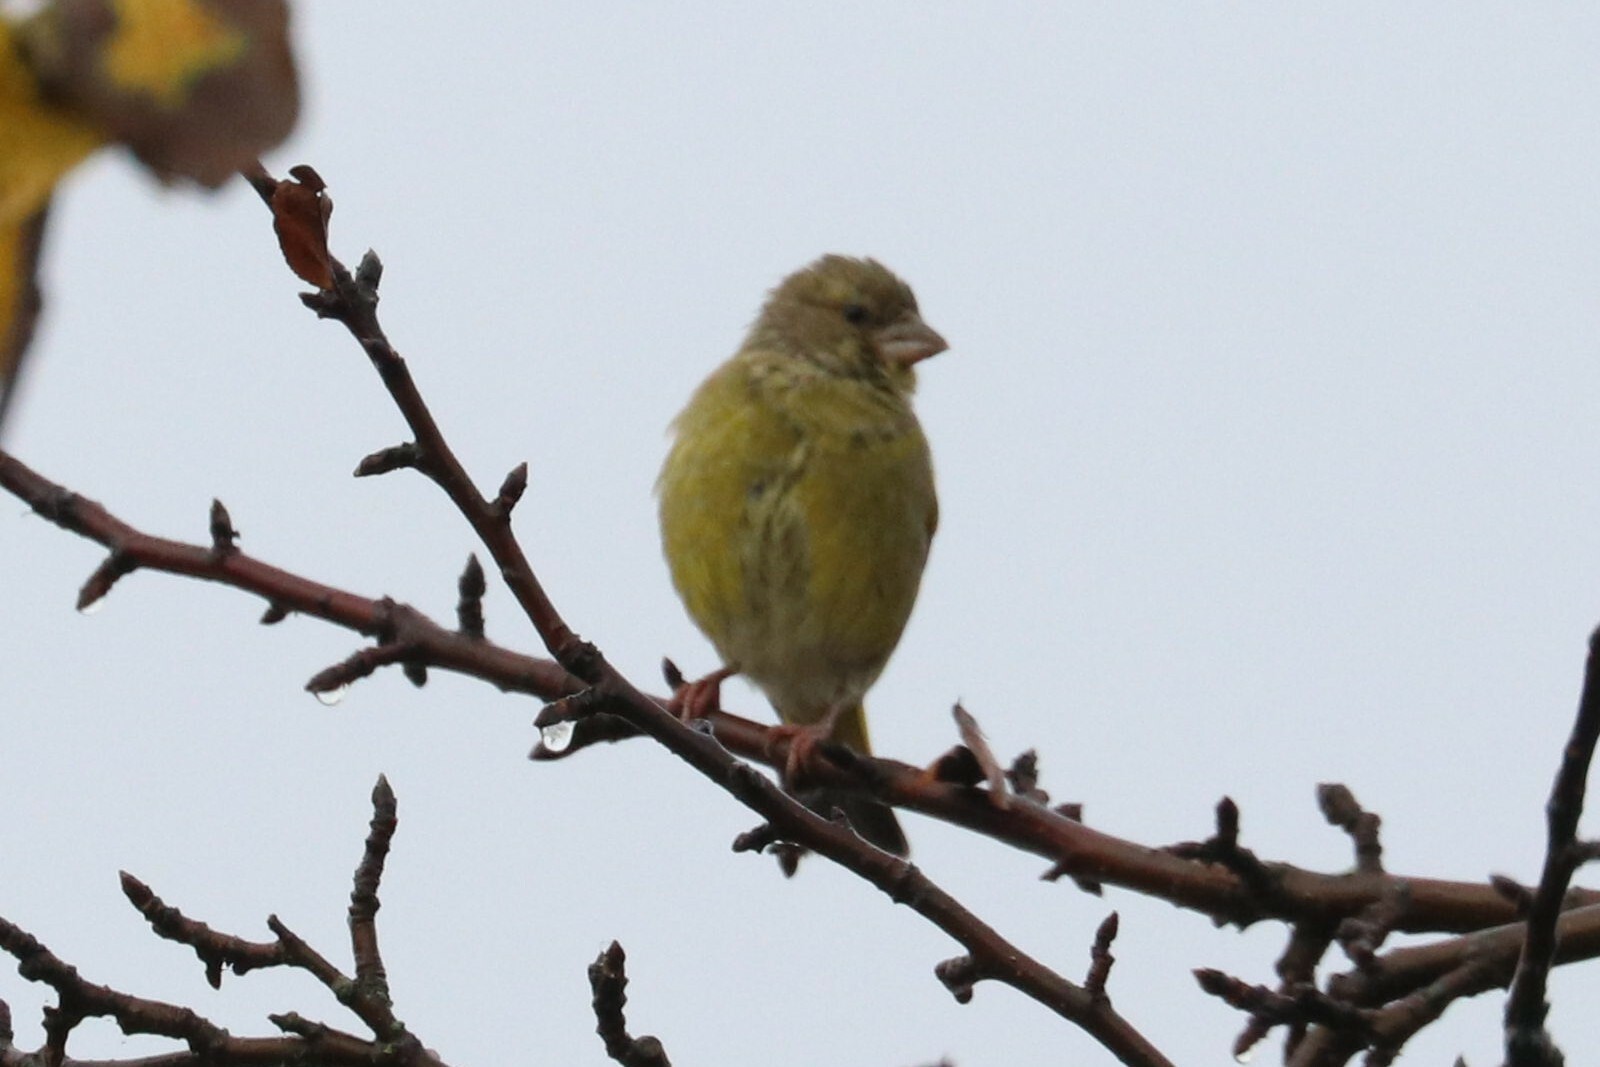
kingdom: Plantae
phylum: Tracheophyta
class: Liliopsida
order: Poales
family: Poaceae
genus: Chloris
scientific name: Chloris chloris
